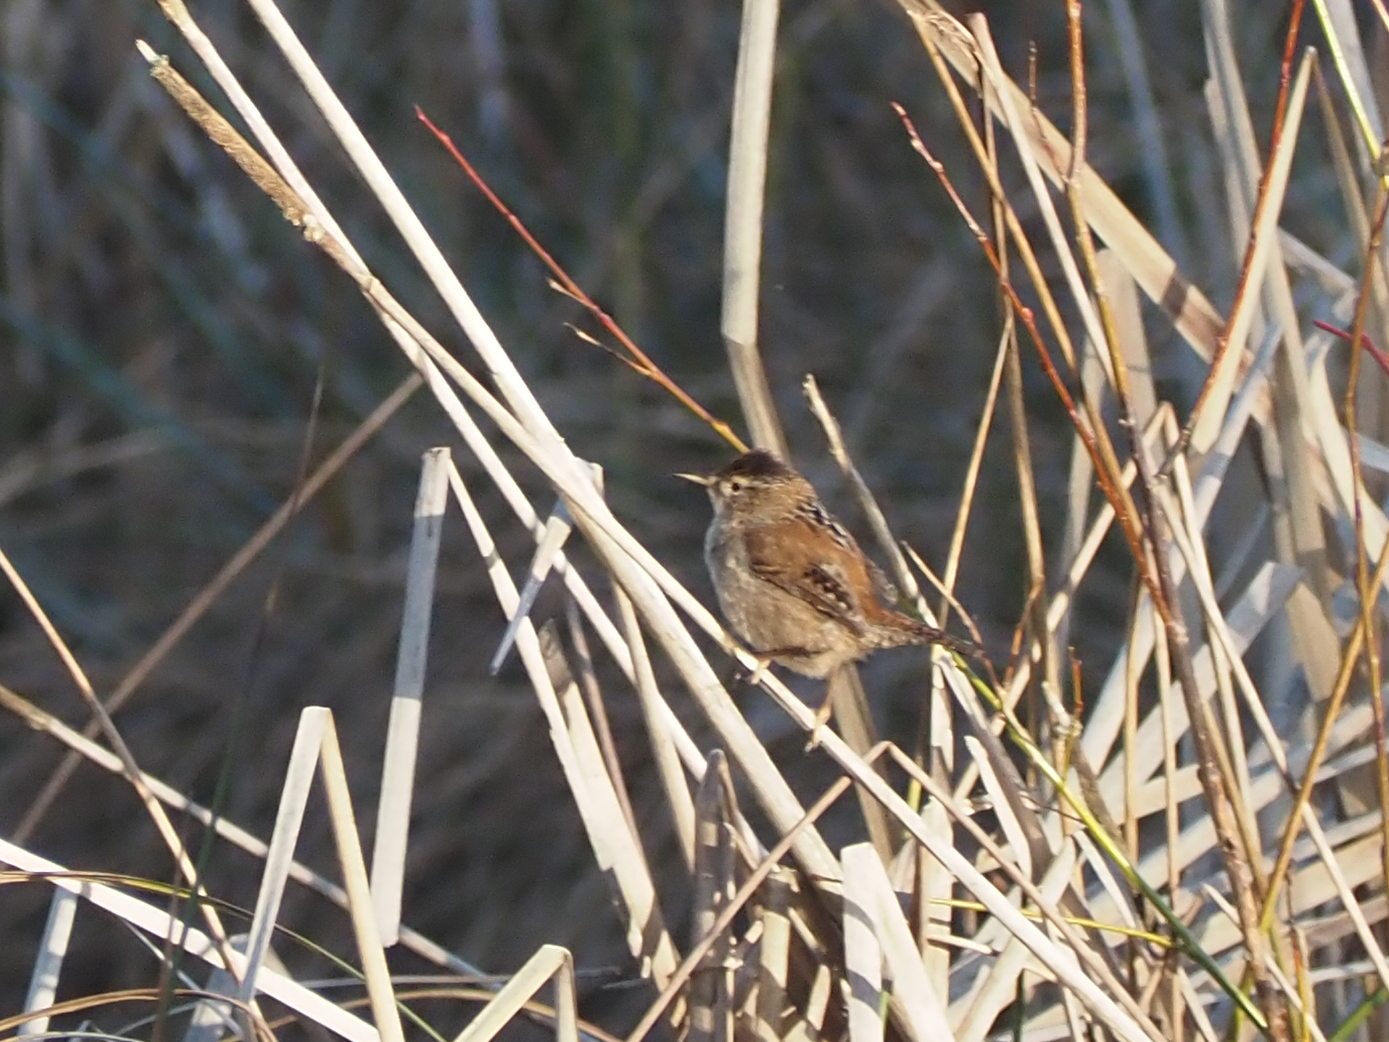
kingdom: Animalia
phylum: Chordata
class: Aves
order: Passeriformes
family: Troglodytidae
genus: Cistothorus
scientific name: Cistothorus palustris
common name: Marsh wren
